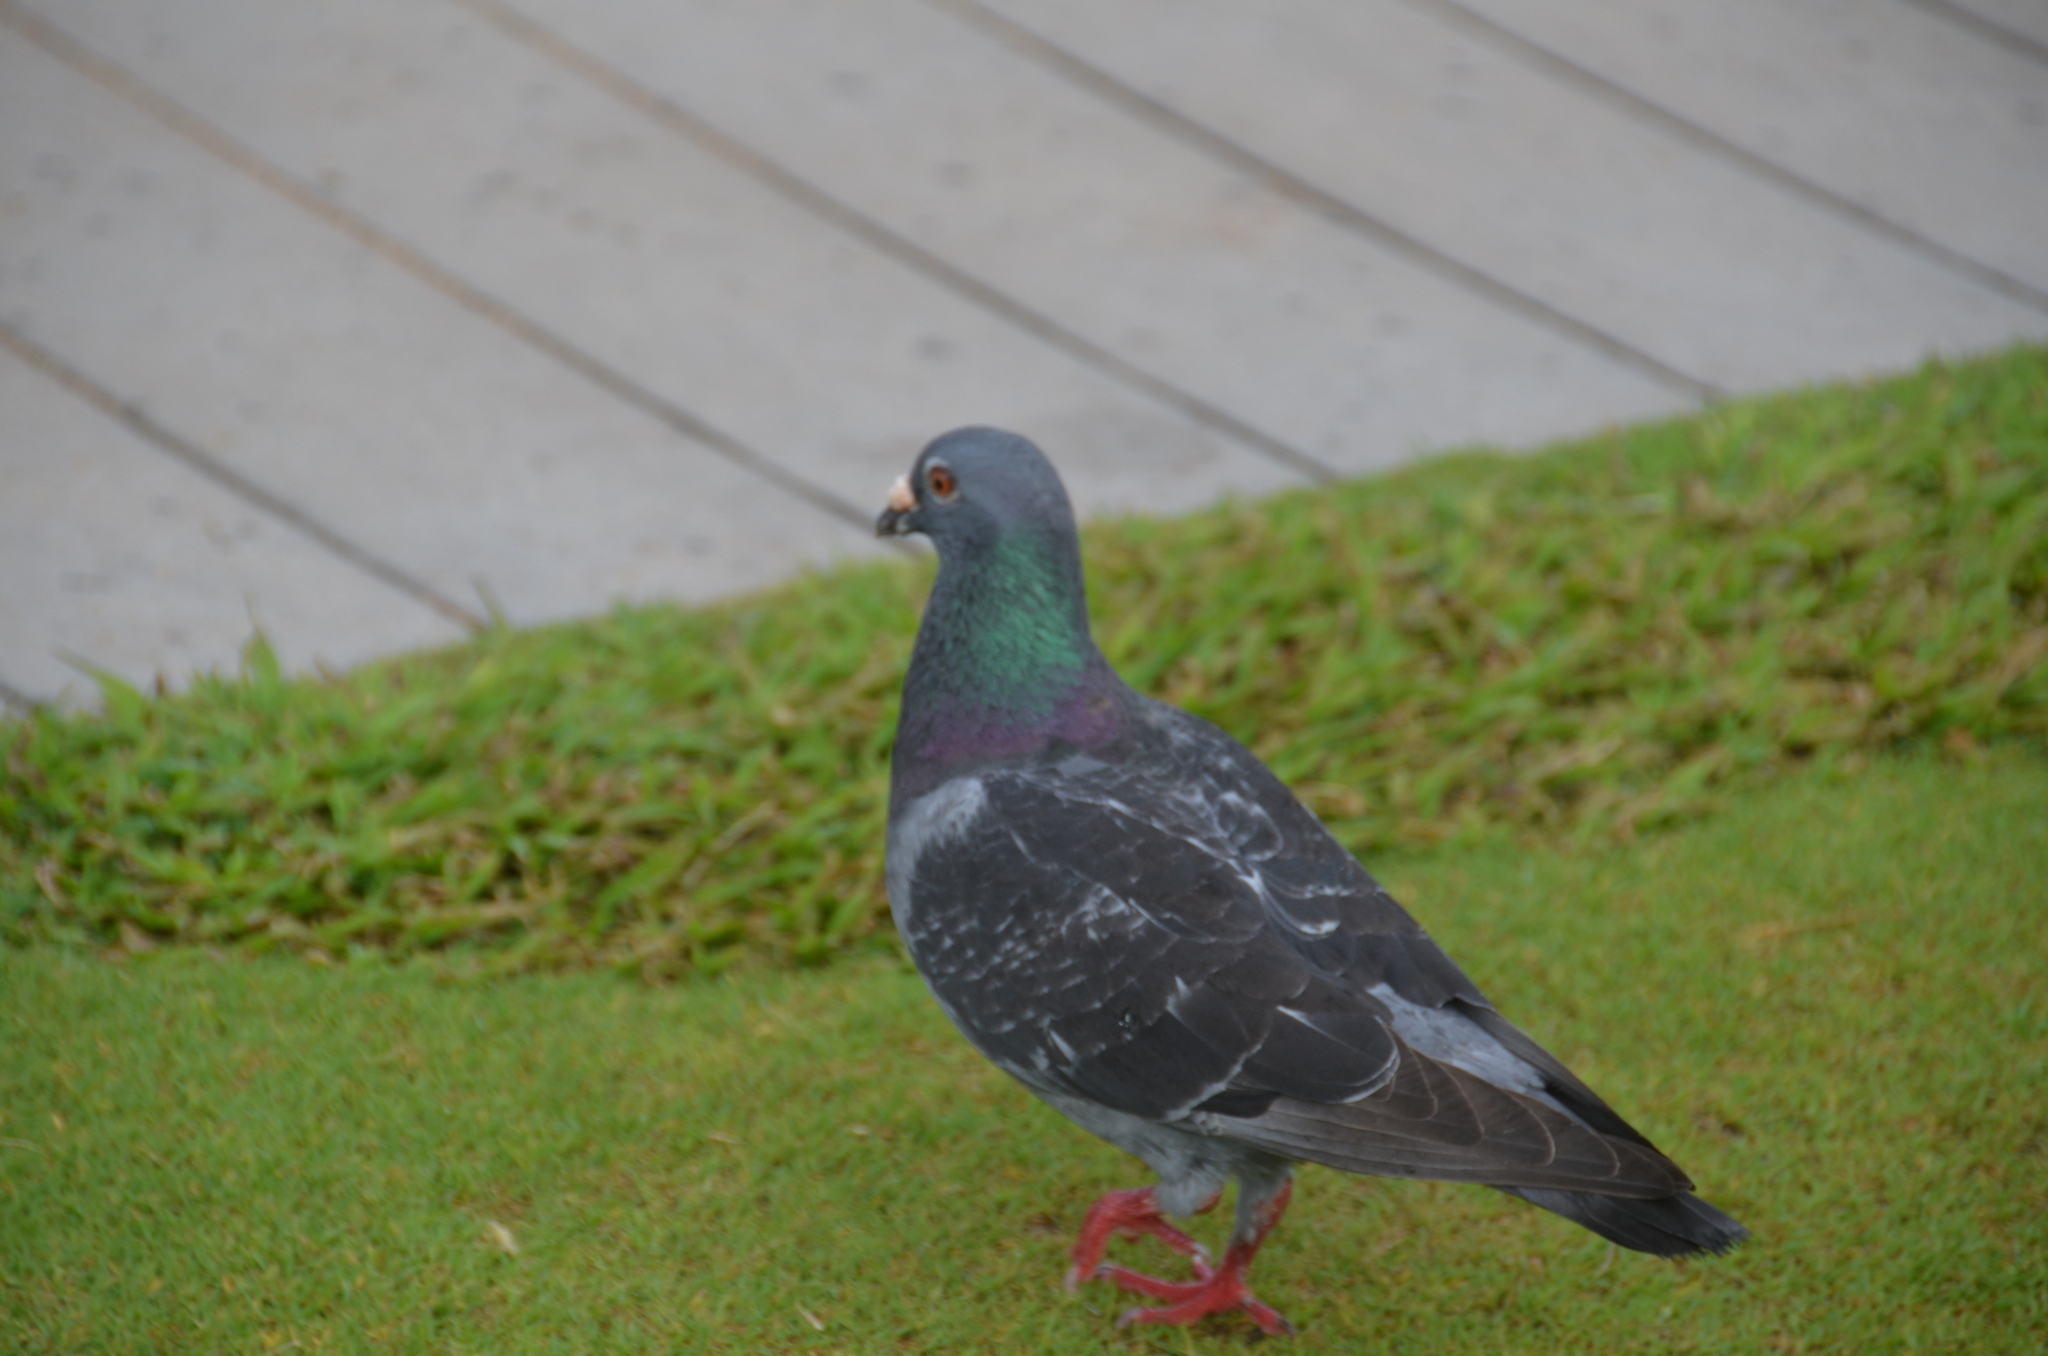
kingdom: Animalia
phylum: Chordata
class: Aves
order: Columbiformes
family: Columbidae
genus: Columba
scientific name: Columba livia
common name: Rock pigeon
